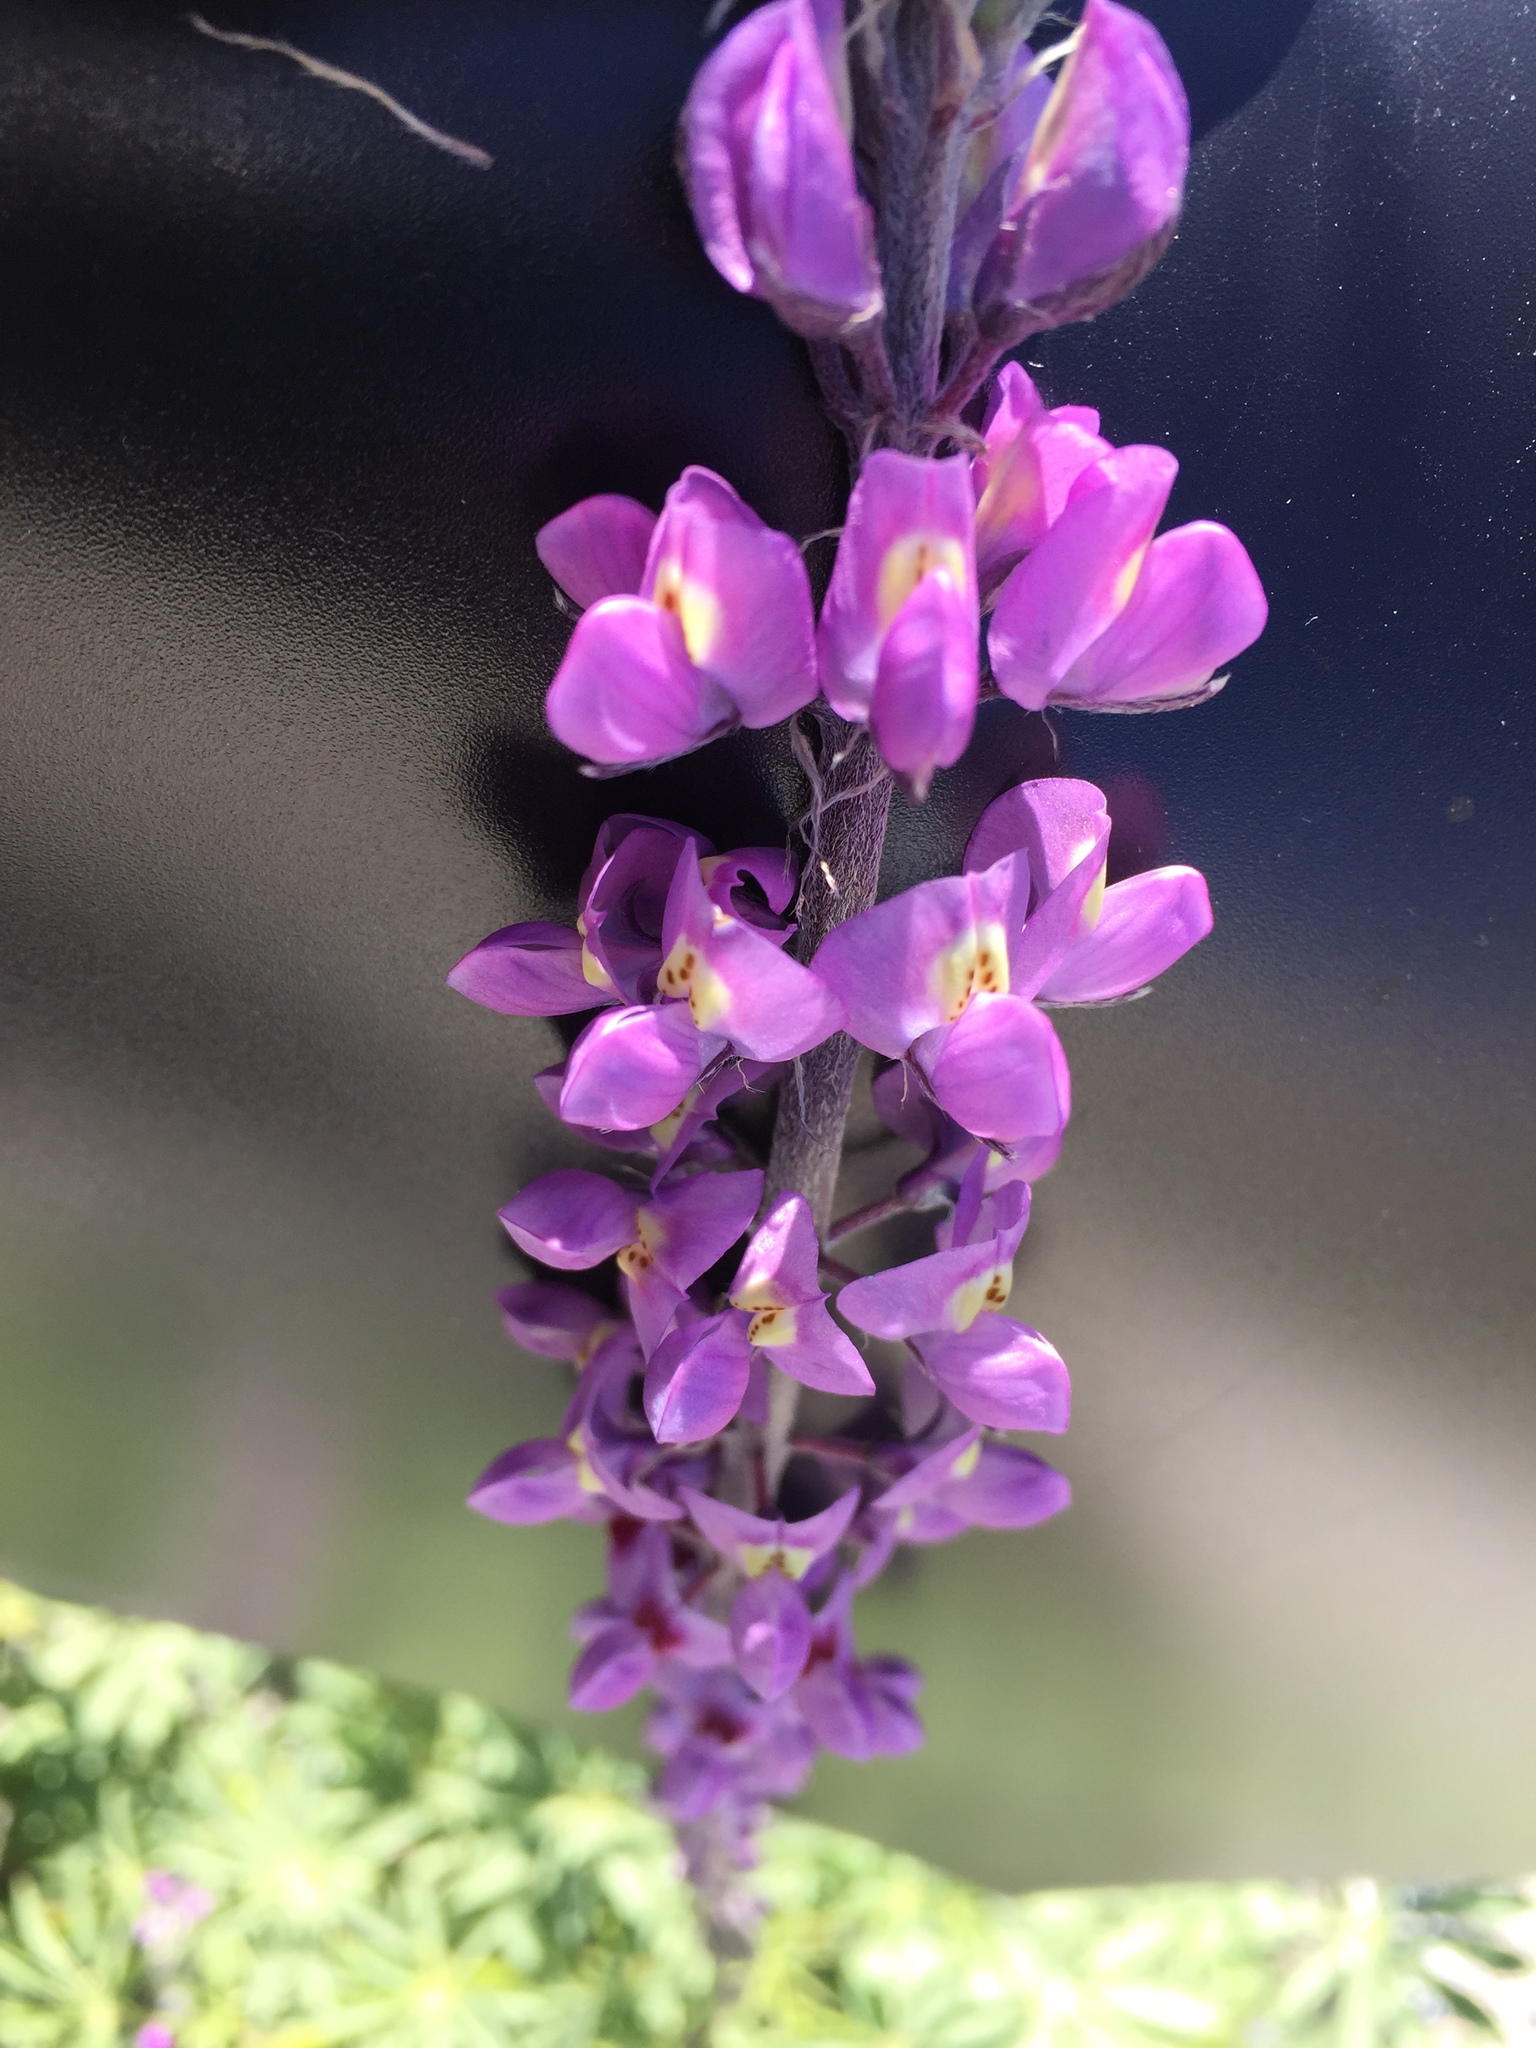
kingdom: Plantae
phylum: Tracheophyta
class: Magnoliopsida
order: Fabales
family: Fabaceae
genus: Lupinus
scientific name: Lupinus arizonicus
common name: Arizona lupine
